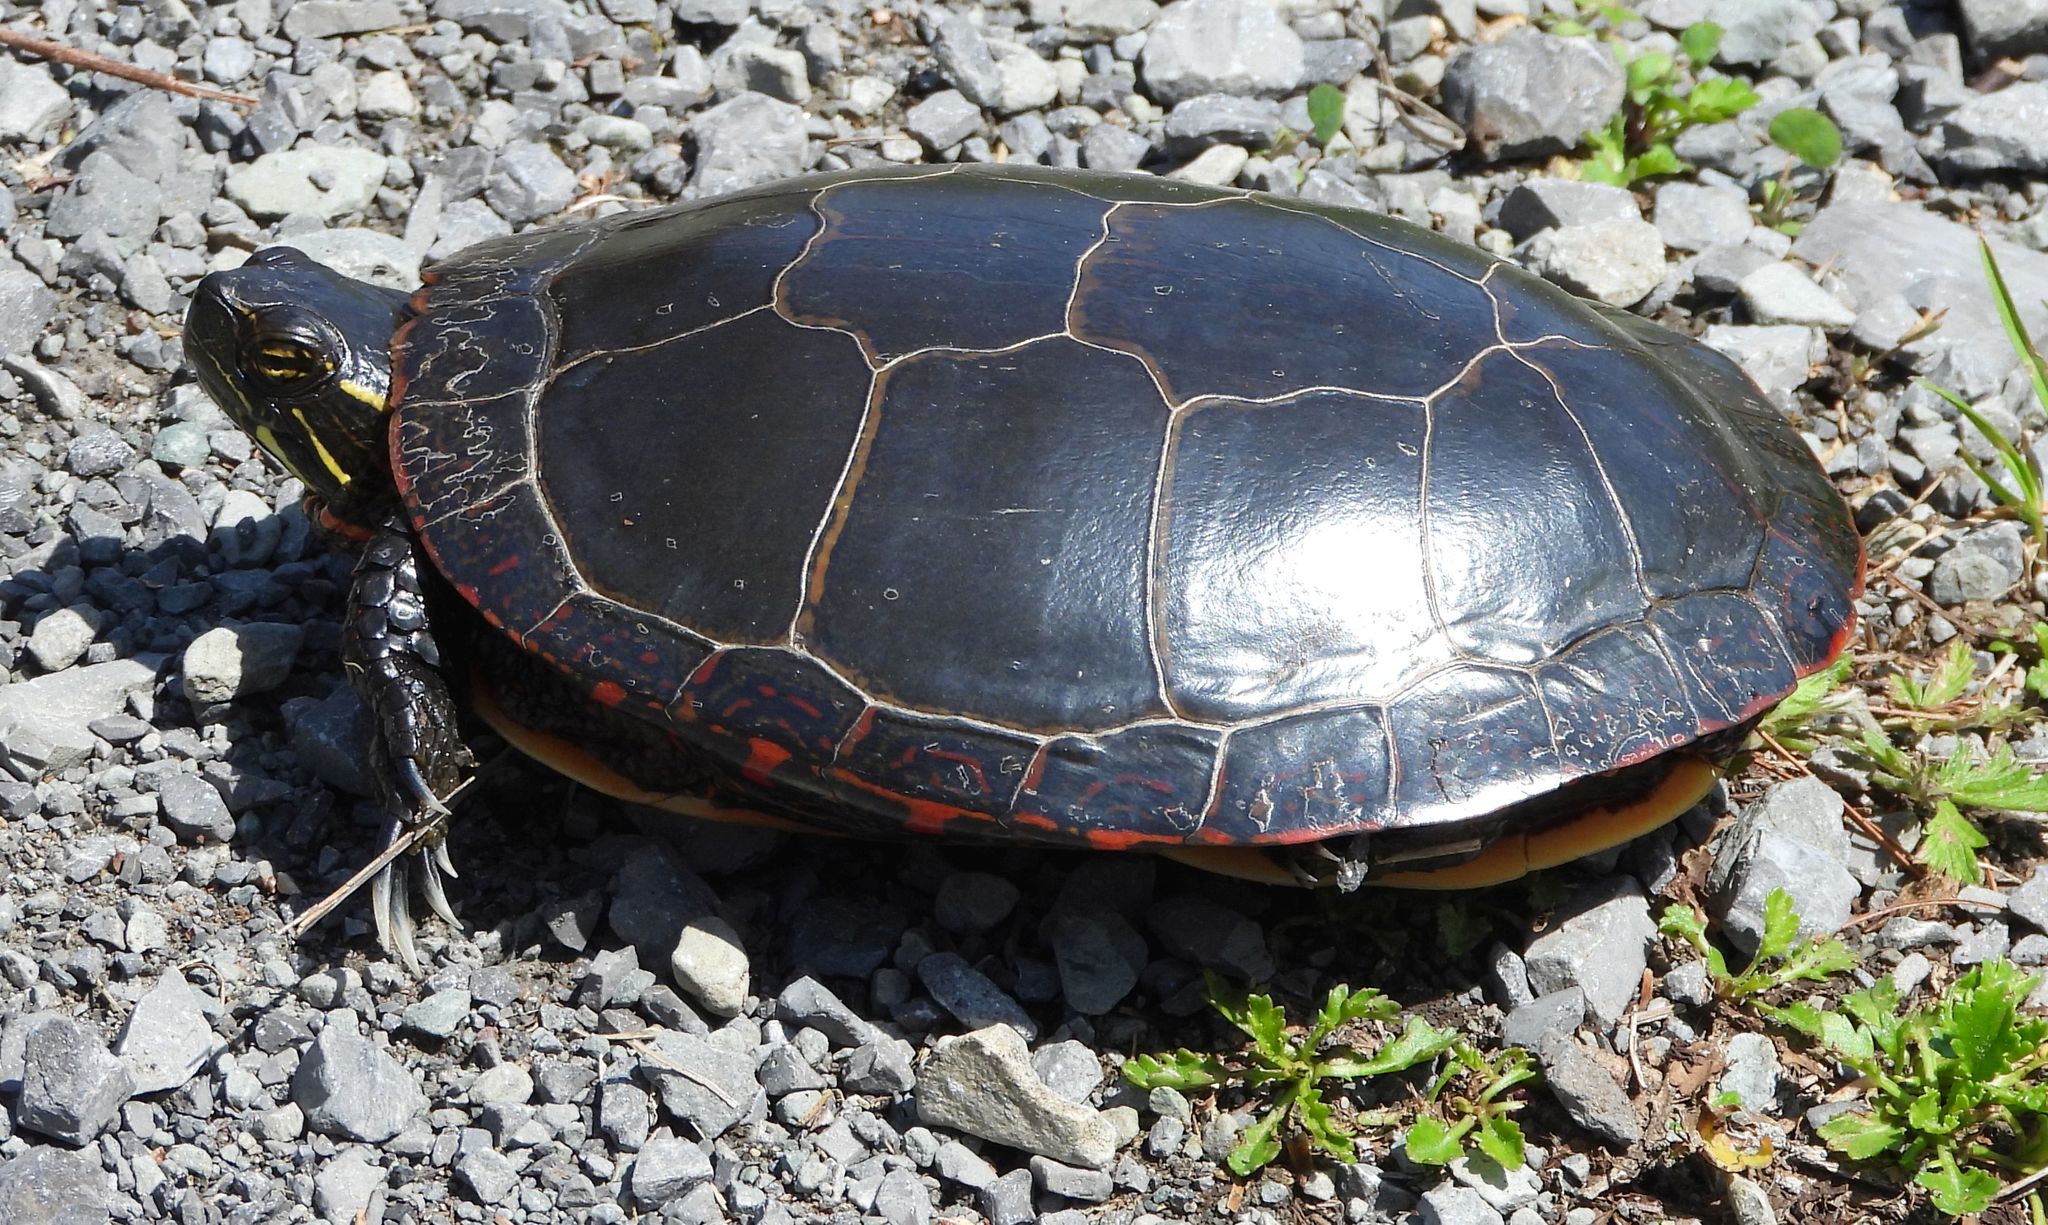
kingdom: Animalia
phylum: Chordata
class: Testudines
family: Emydidae
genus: Chrysemys
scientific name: Chrysemys picta
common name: Painted turtle
